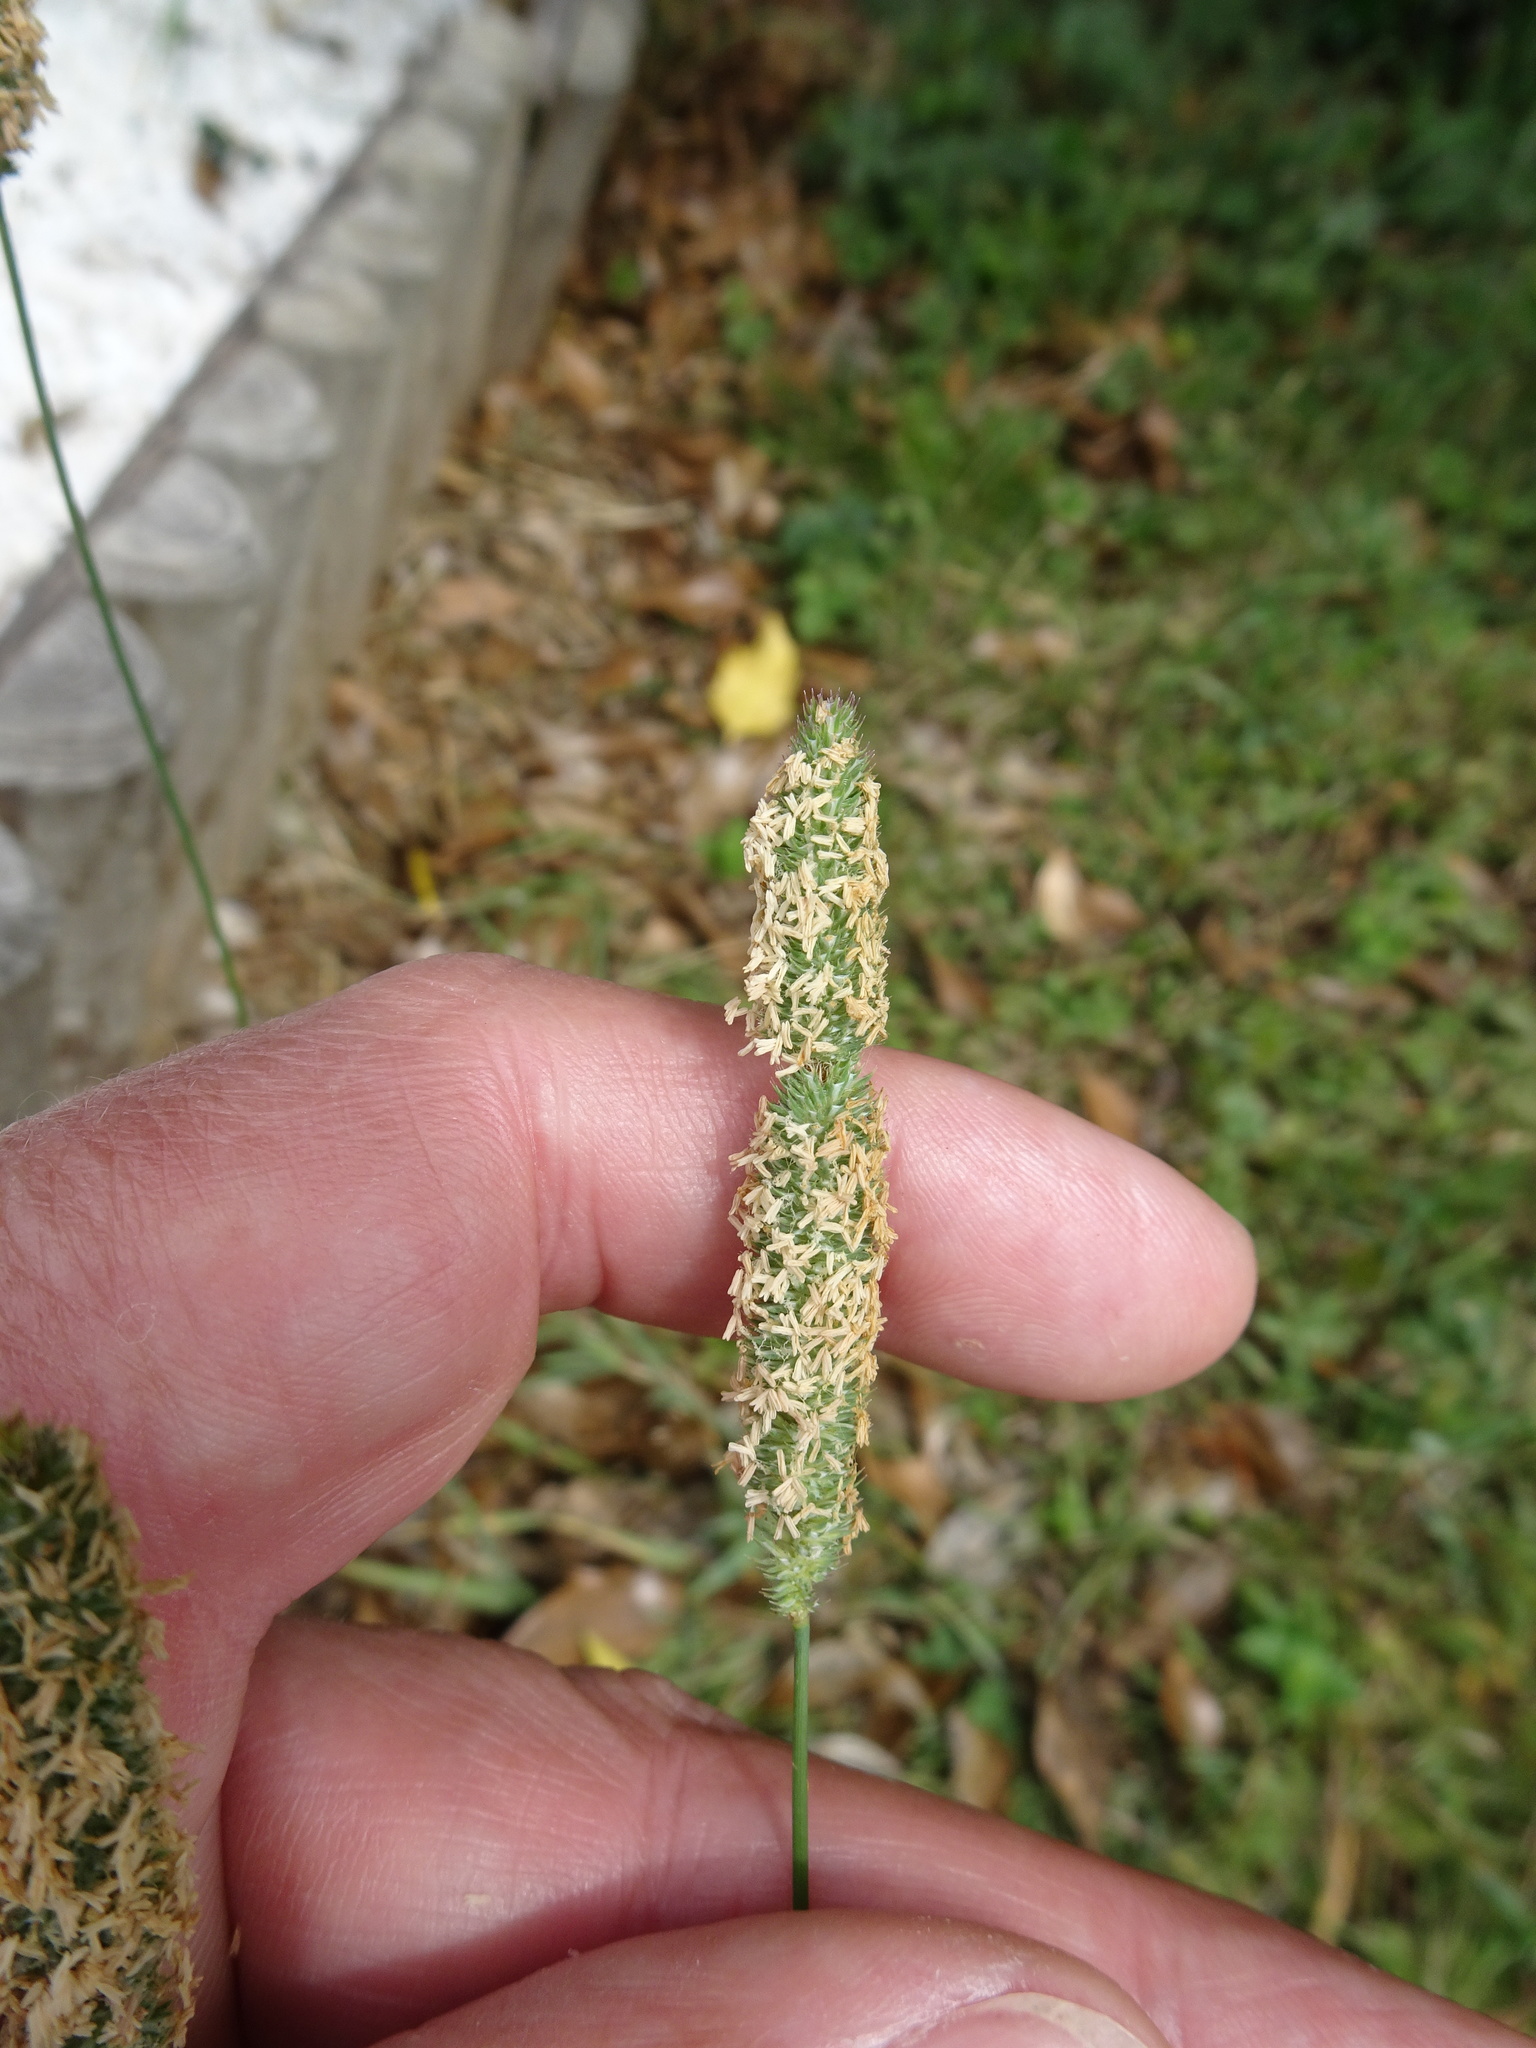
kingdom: Plantae
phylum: Tracheophyta
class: Liliopsida
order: Poales
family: Poaceae
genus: Phleum
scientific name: Phleum pratense
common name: Timothy grass
